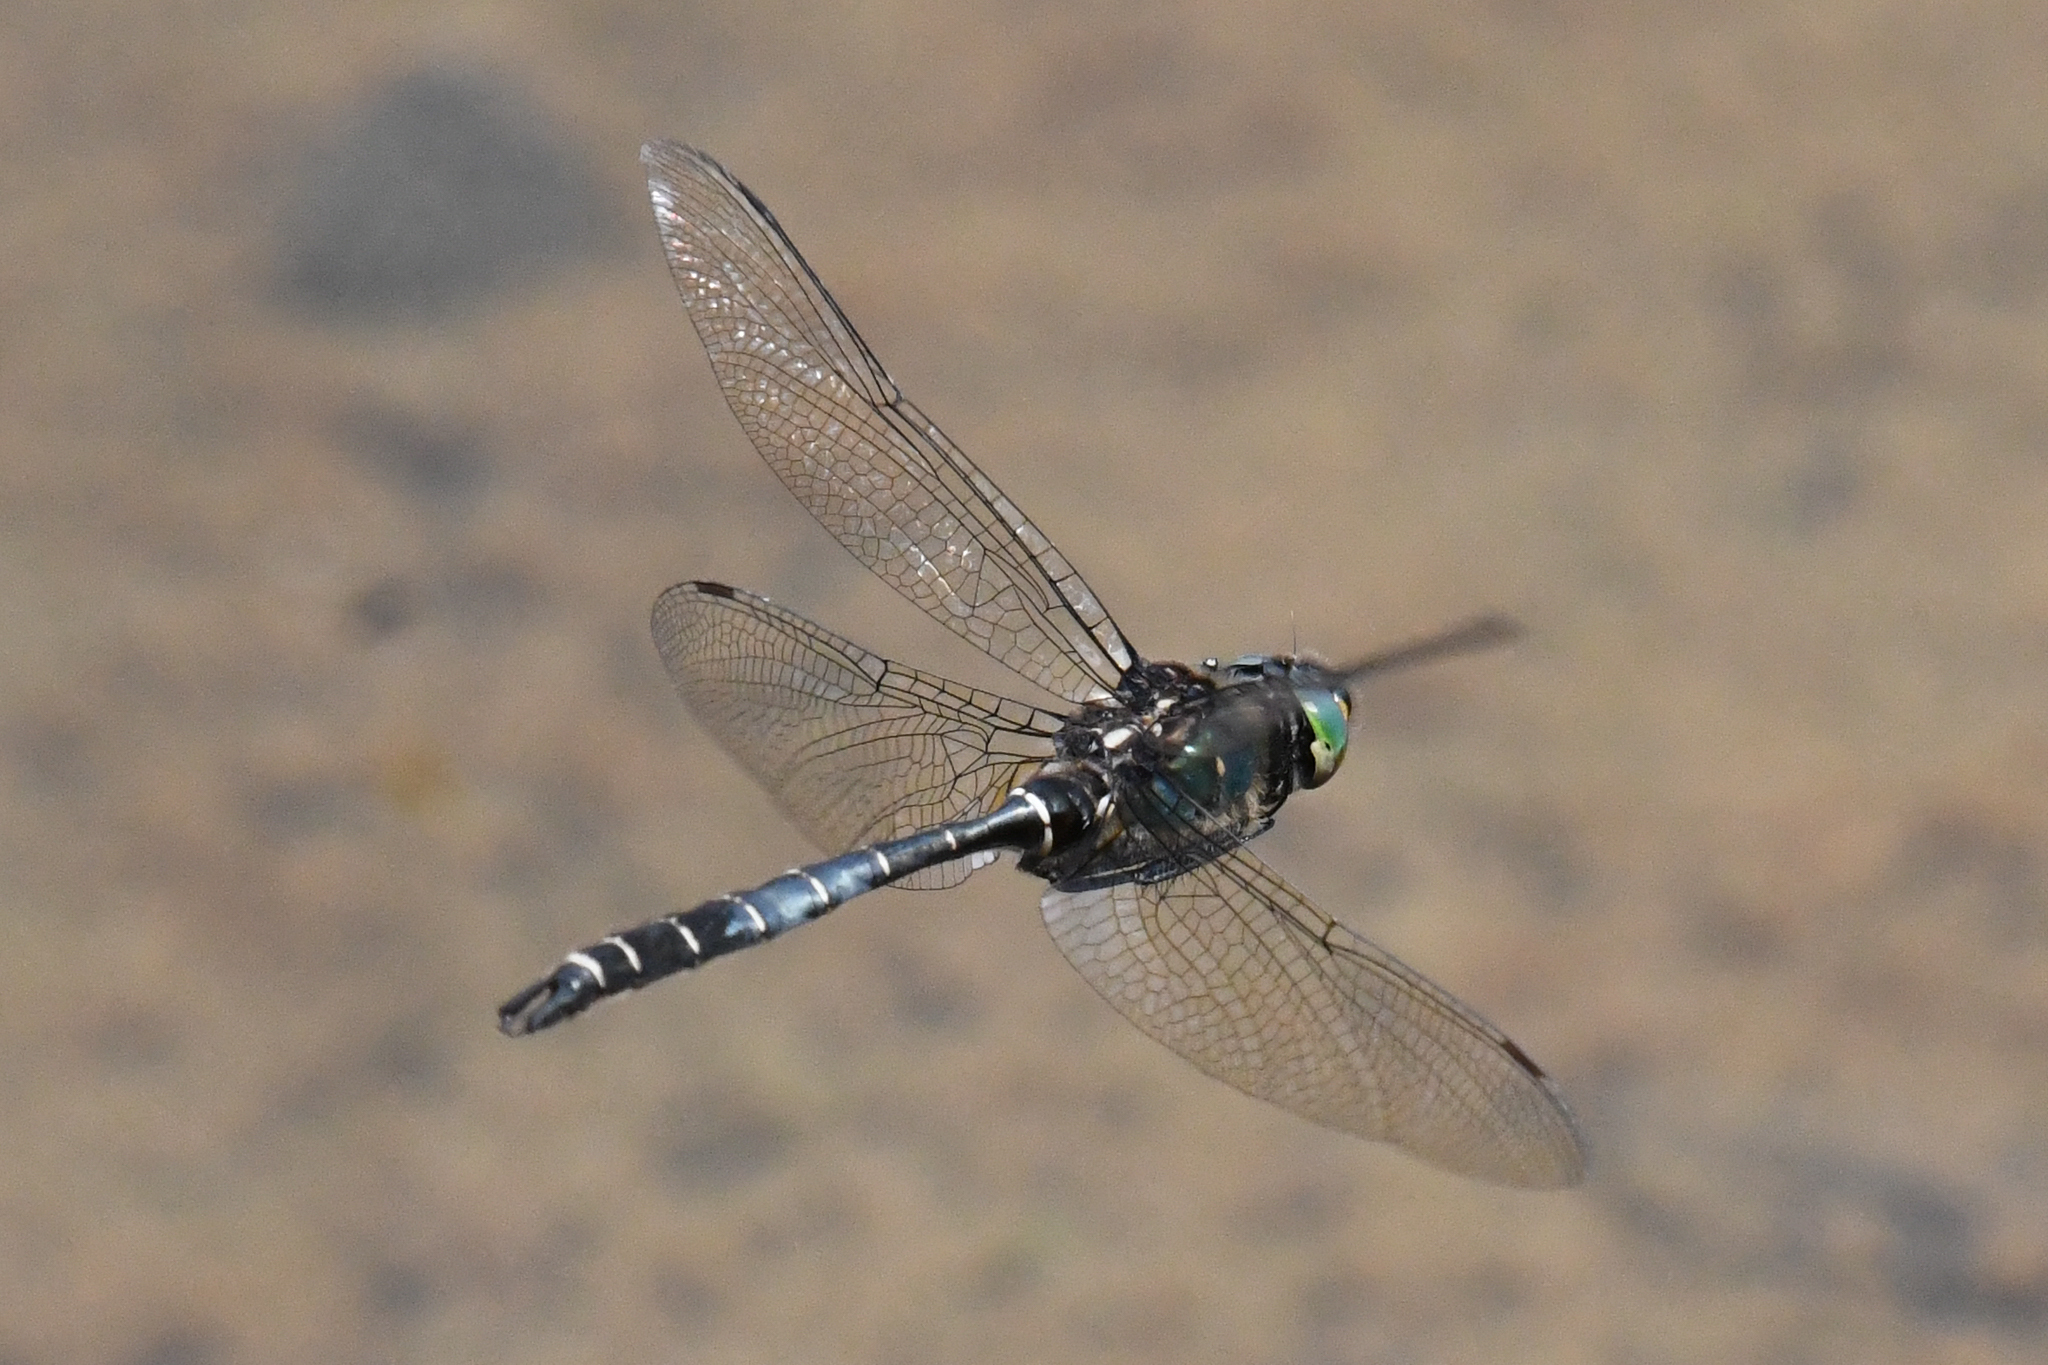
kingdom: Animalia
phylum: Arthropoda
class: Insecta
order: Odonata
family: Corduliidae
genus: Somatochlora
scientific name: Somatochlora albicincta
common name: Ringed emerald
